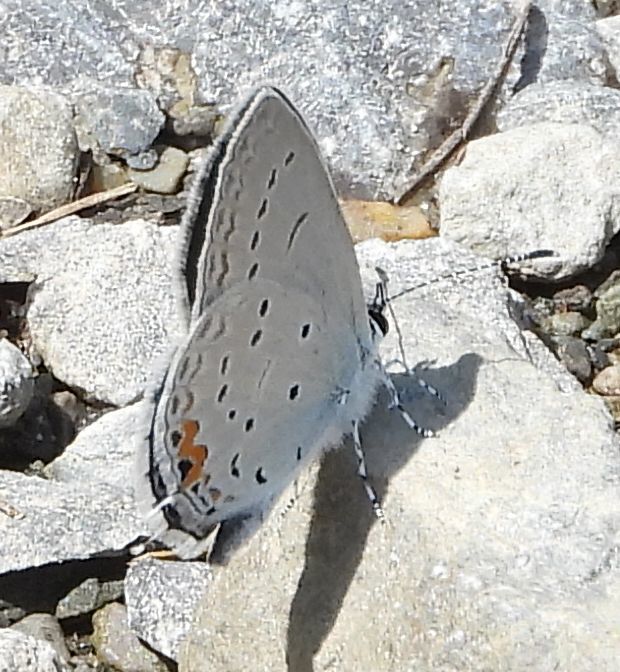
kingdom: Animalia
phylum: Arthropoda
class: Insecta
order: Lepidoptera
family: Lycaenidae
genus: Elkalyce
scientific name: Elkalyce comyntas
